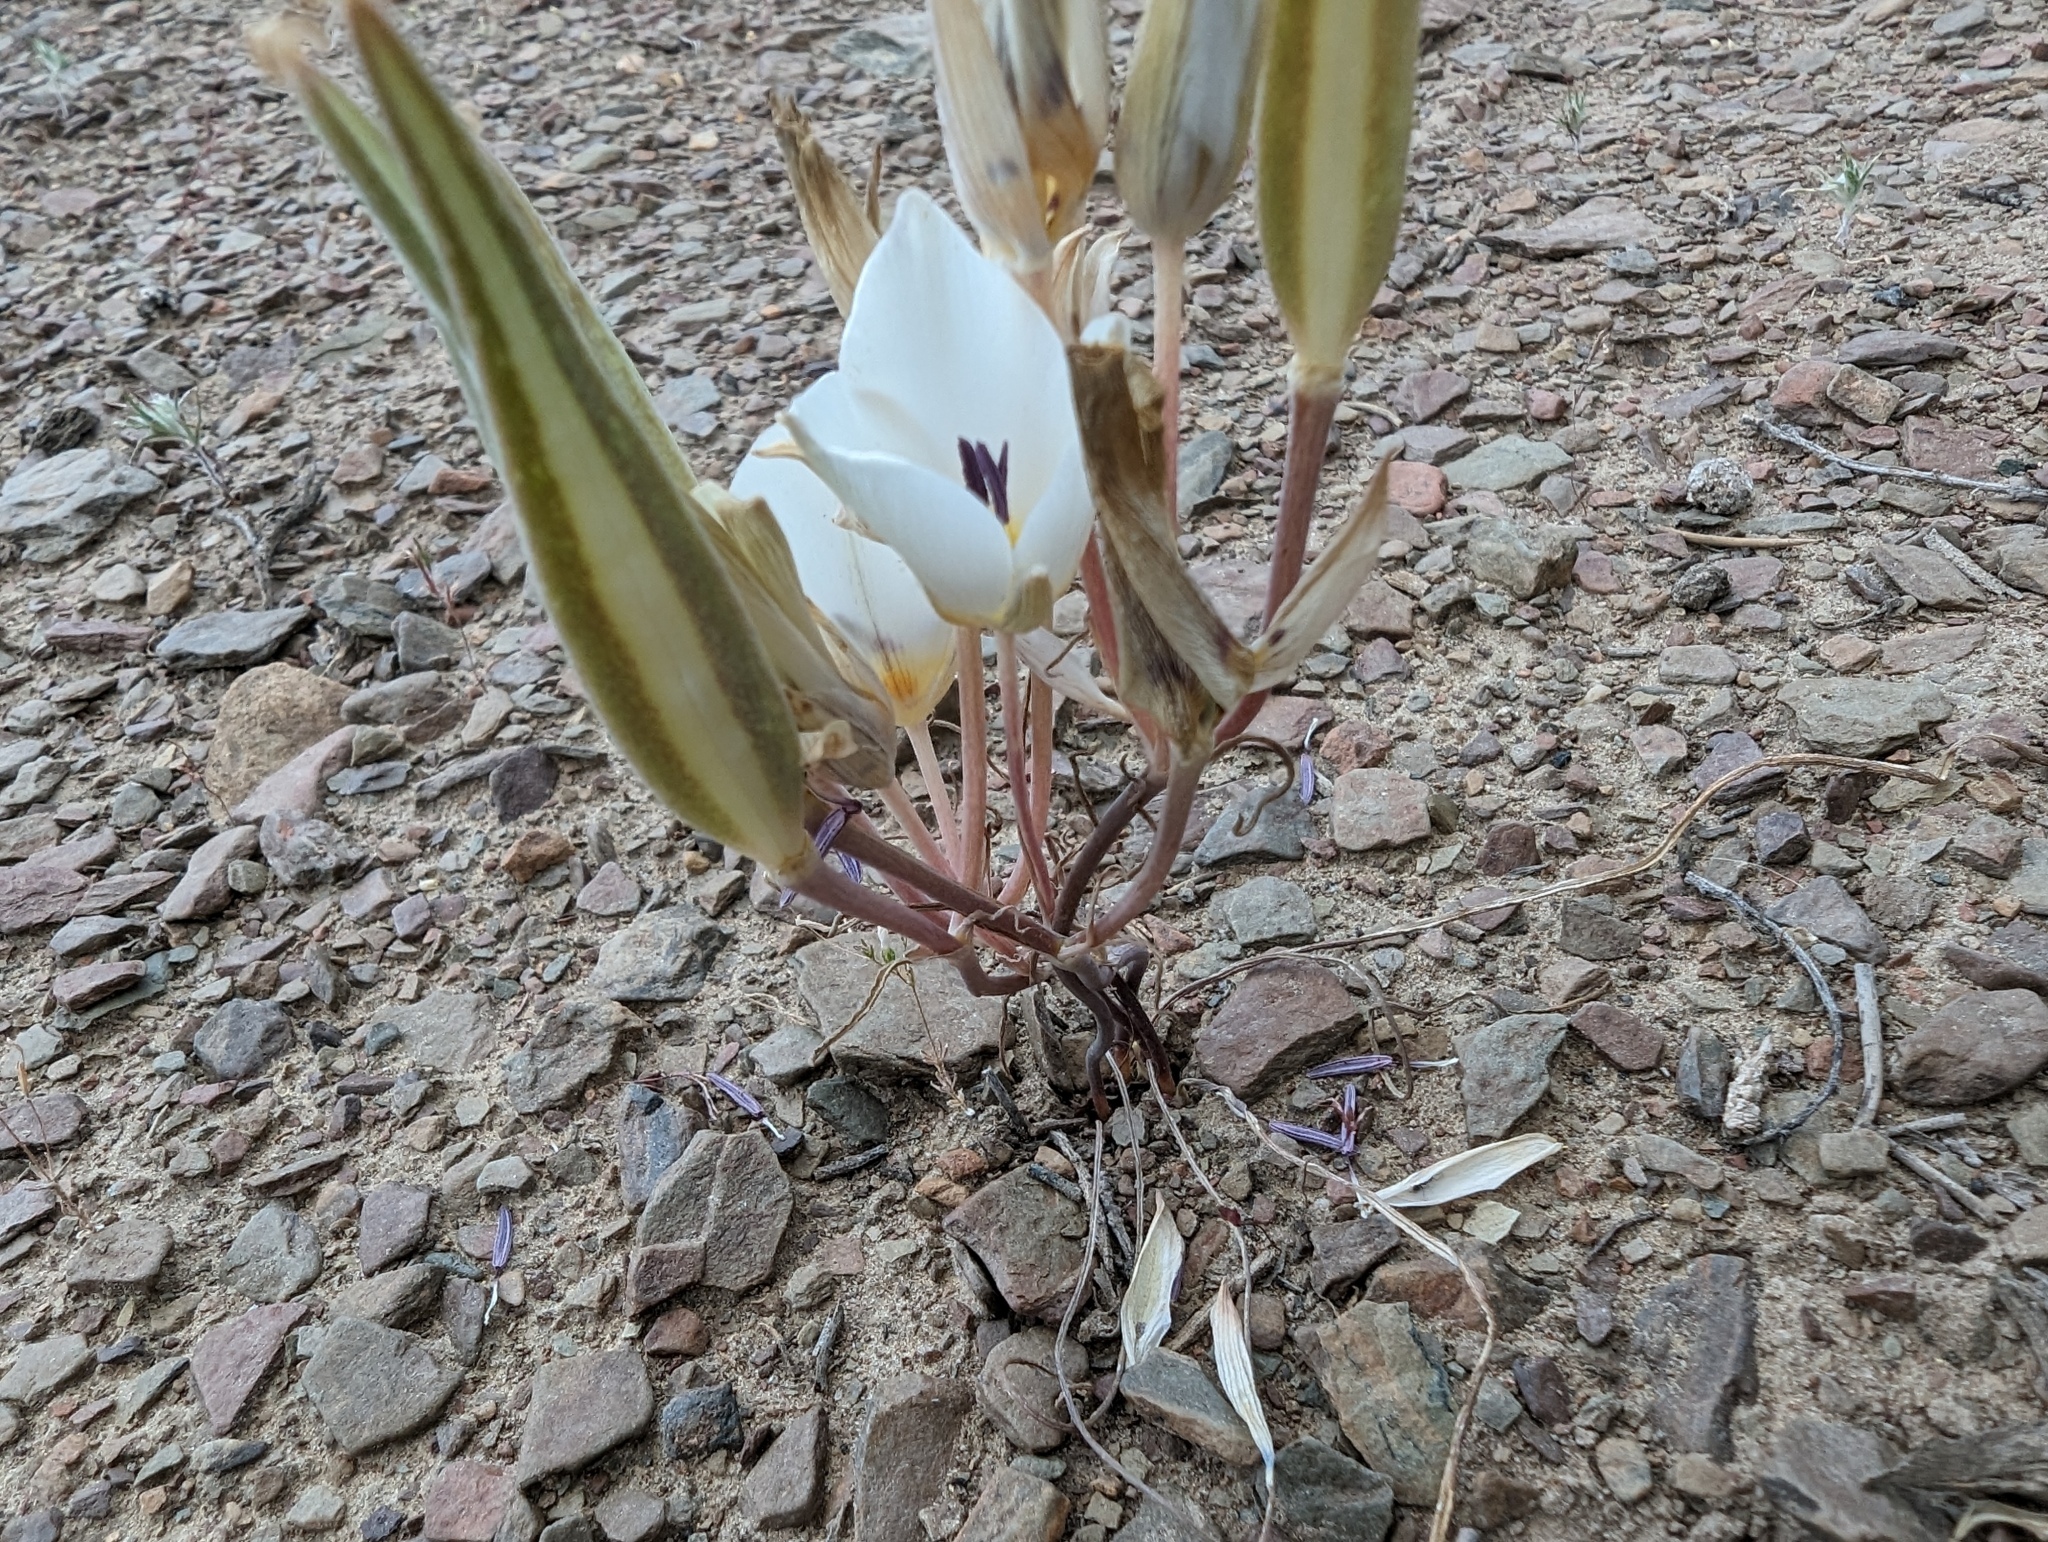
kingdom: Plantae
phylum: Tracheophyta
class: Liliopsida
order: Liliales
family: Liliaceae
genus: Calochortus
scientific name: Calochortus bruneaunis
